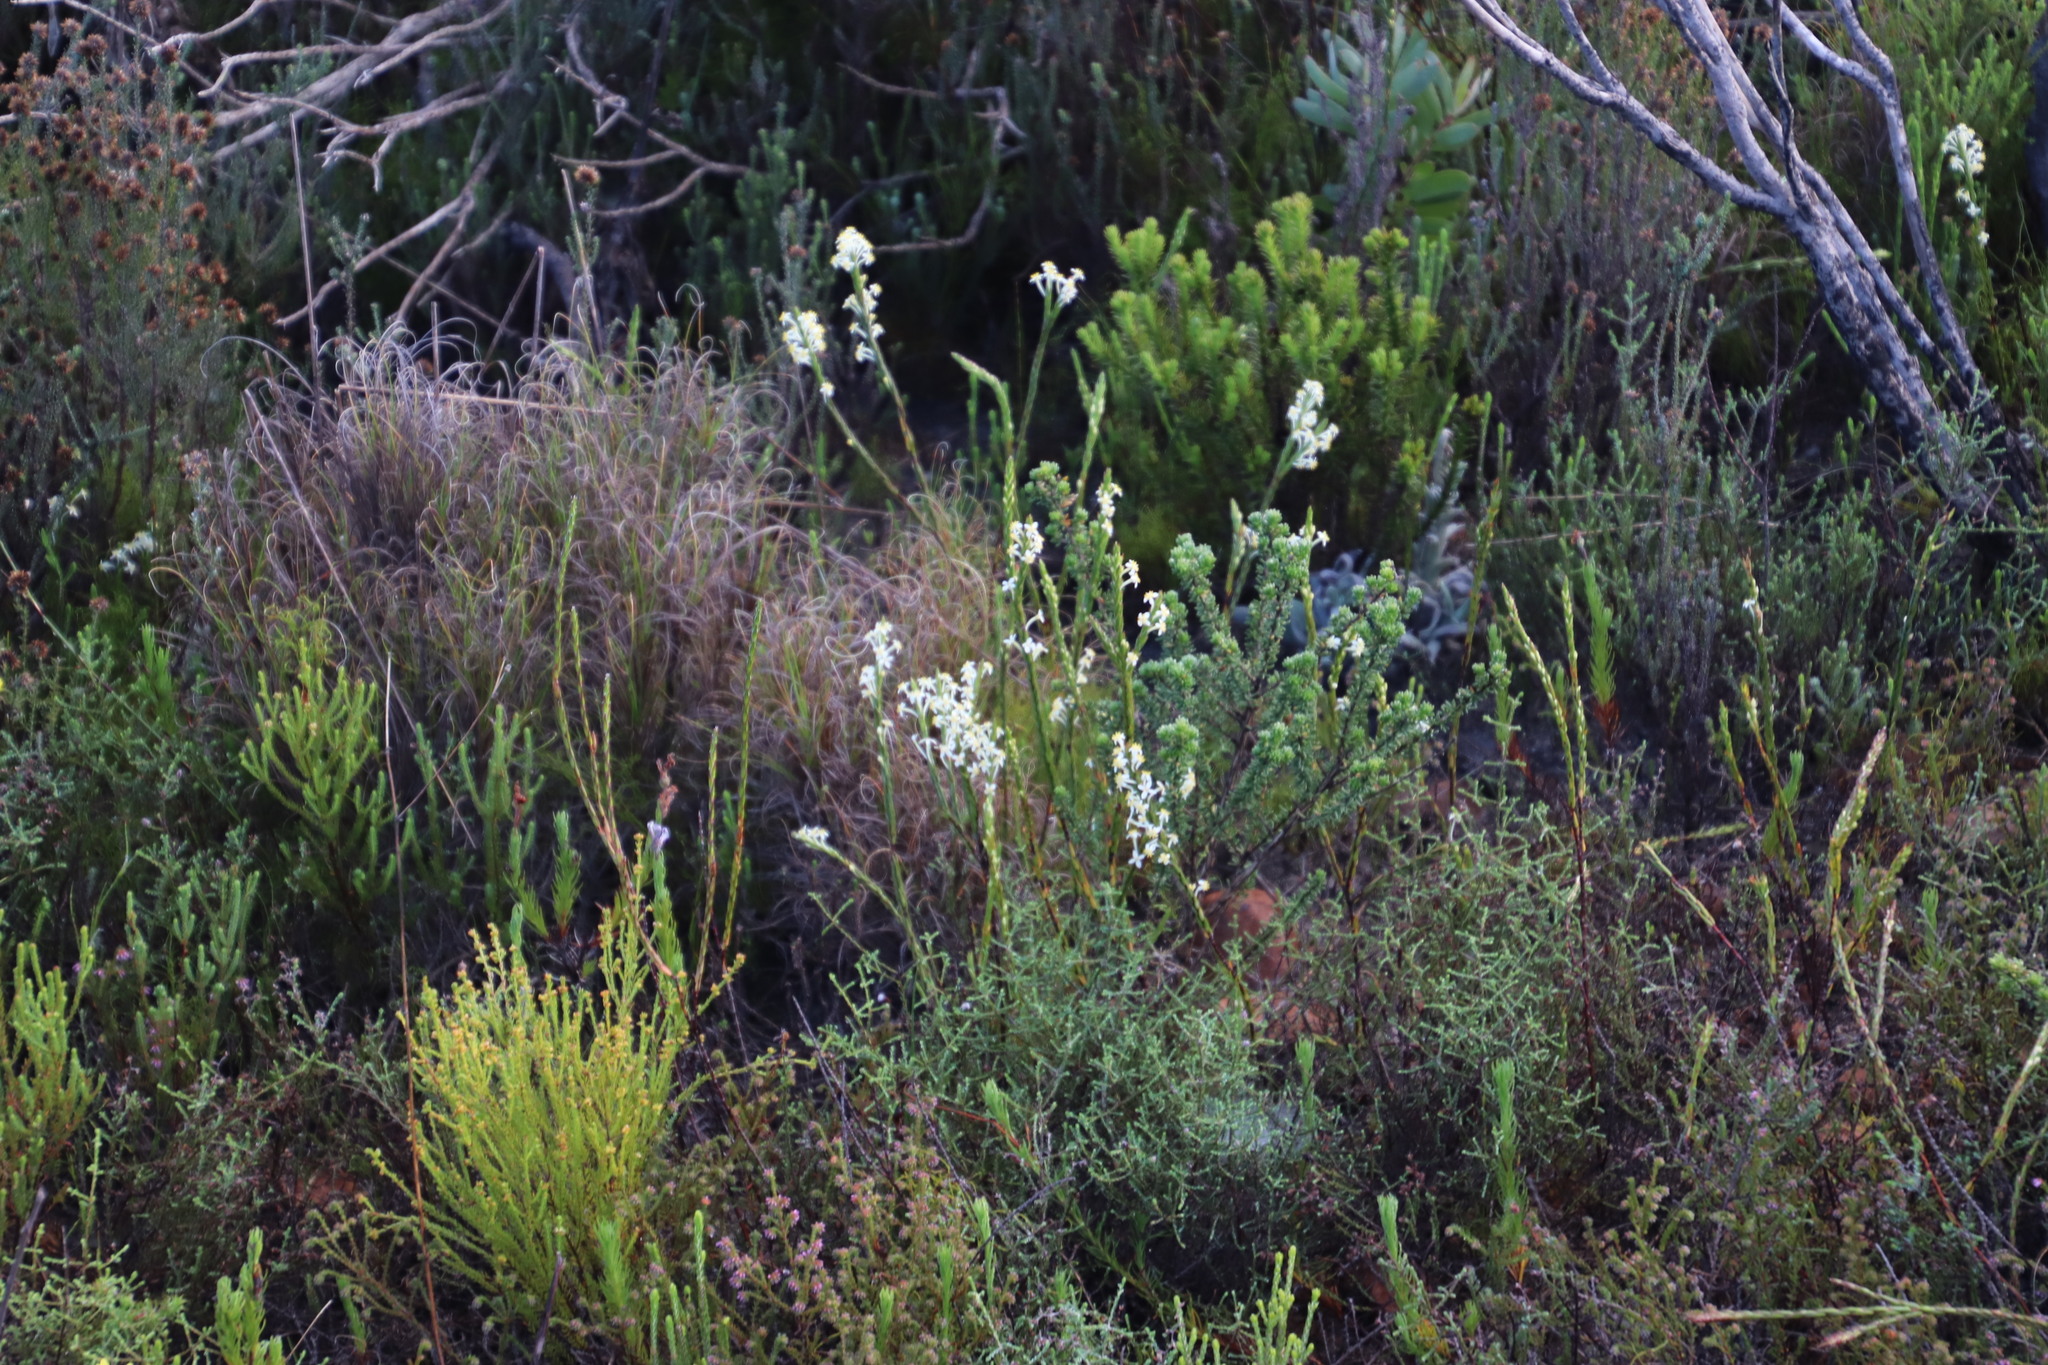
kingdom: Plantae
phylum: Tracheophyta
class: Magnoliopsida
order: Malvales
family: Thymelaeaceae
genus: Struthiola
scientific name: Struthiola ciliata
